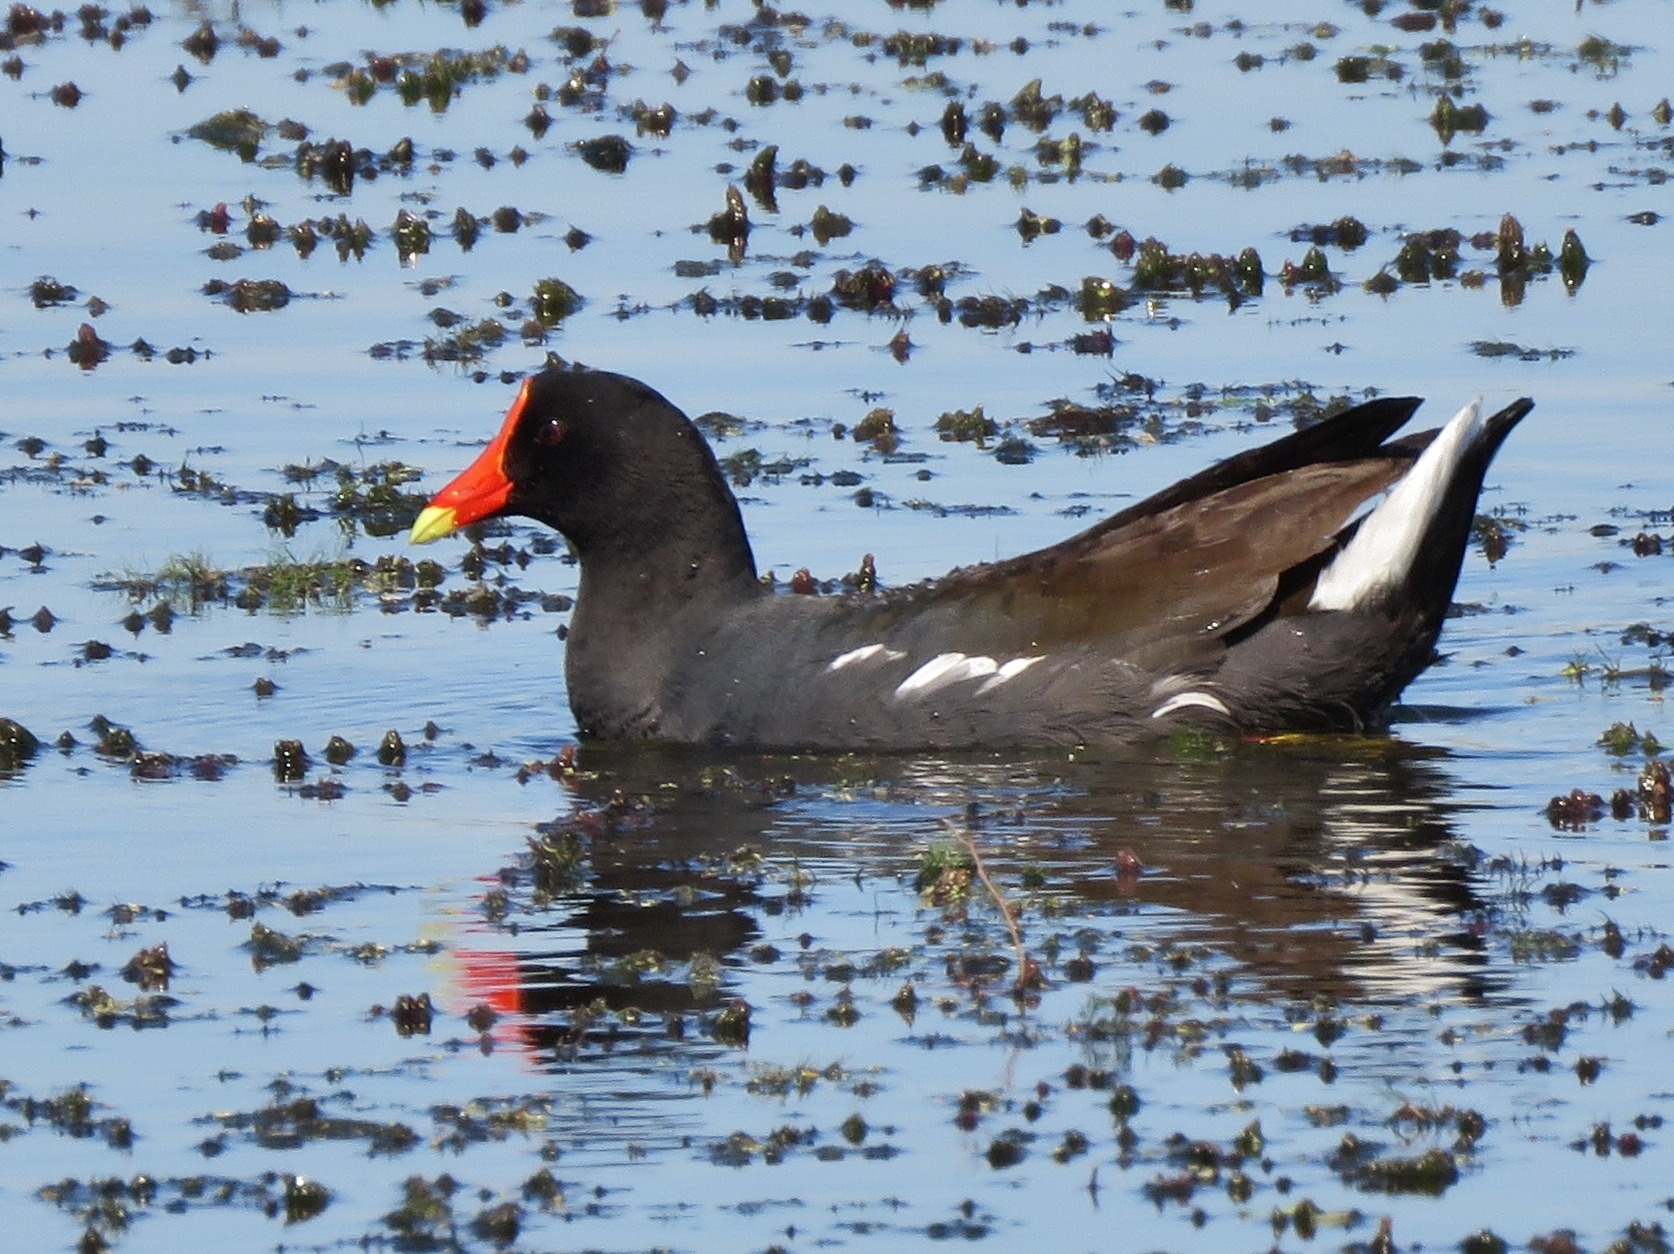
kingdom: Animalia
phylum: Chordata
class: Aves
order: Gruiformes
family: Rallidae
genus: Gallinula
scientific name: Gallinula chloropus
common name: Common moorhen
